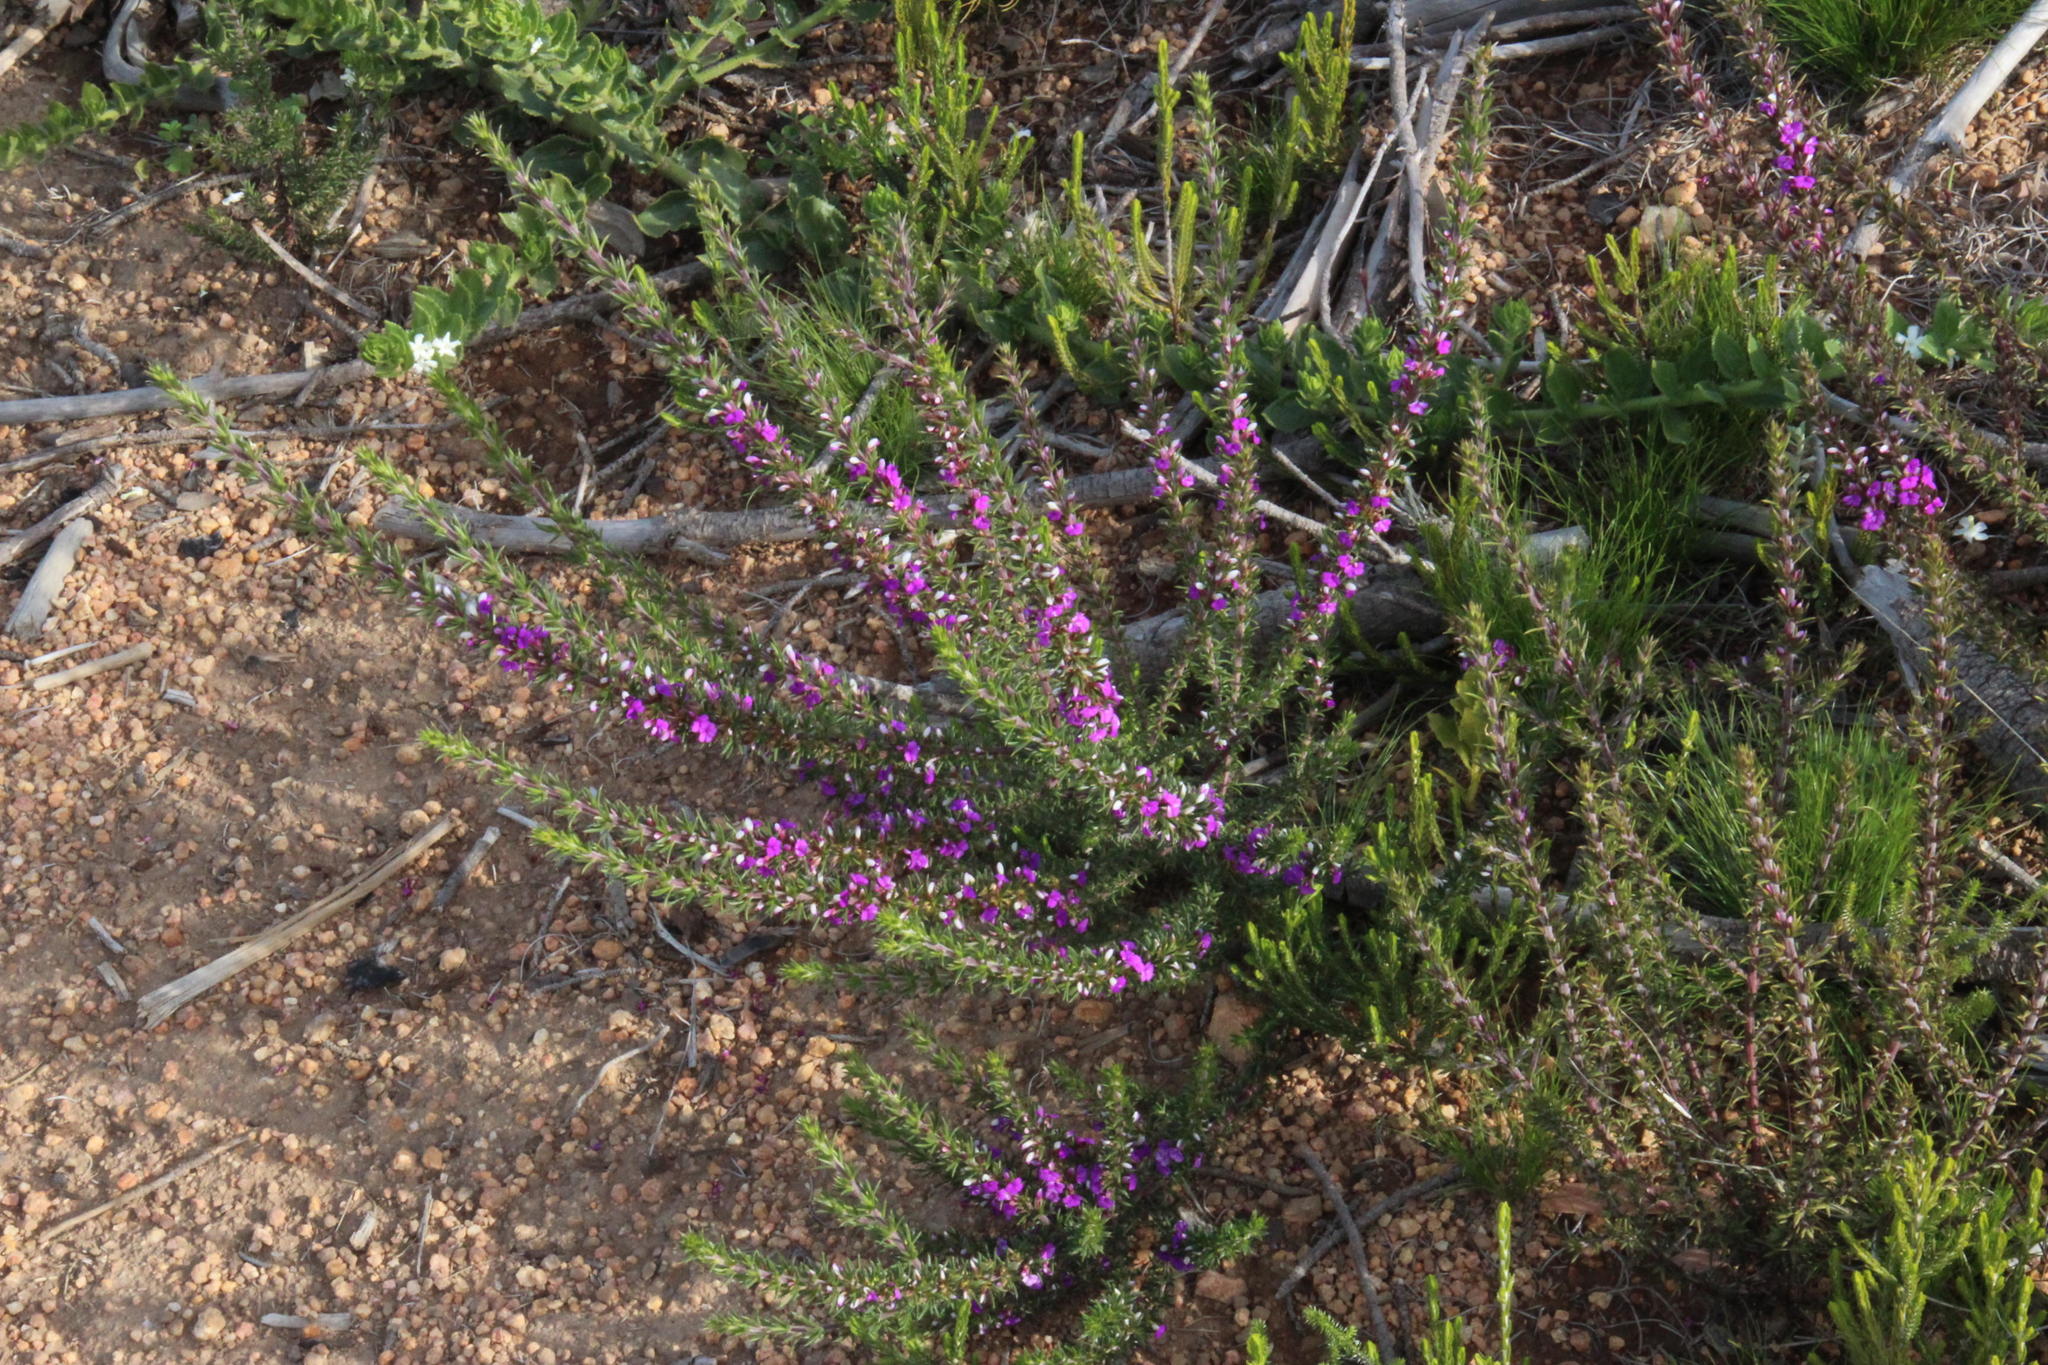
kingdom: Plantae
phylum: Tracheophyta
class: Magnoliopsida
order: Fabales
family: Polygalaceae
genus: Muraltia
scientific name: Muraltia heisteria
